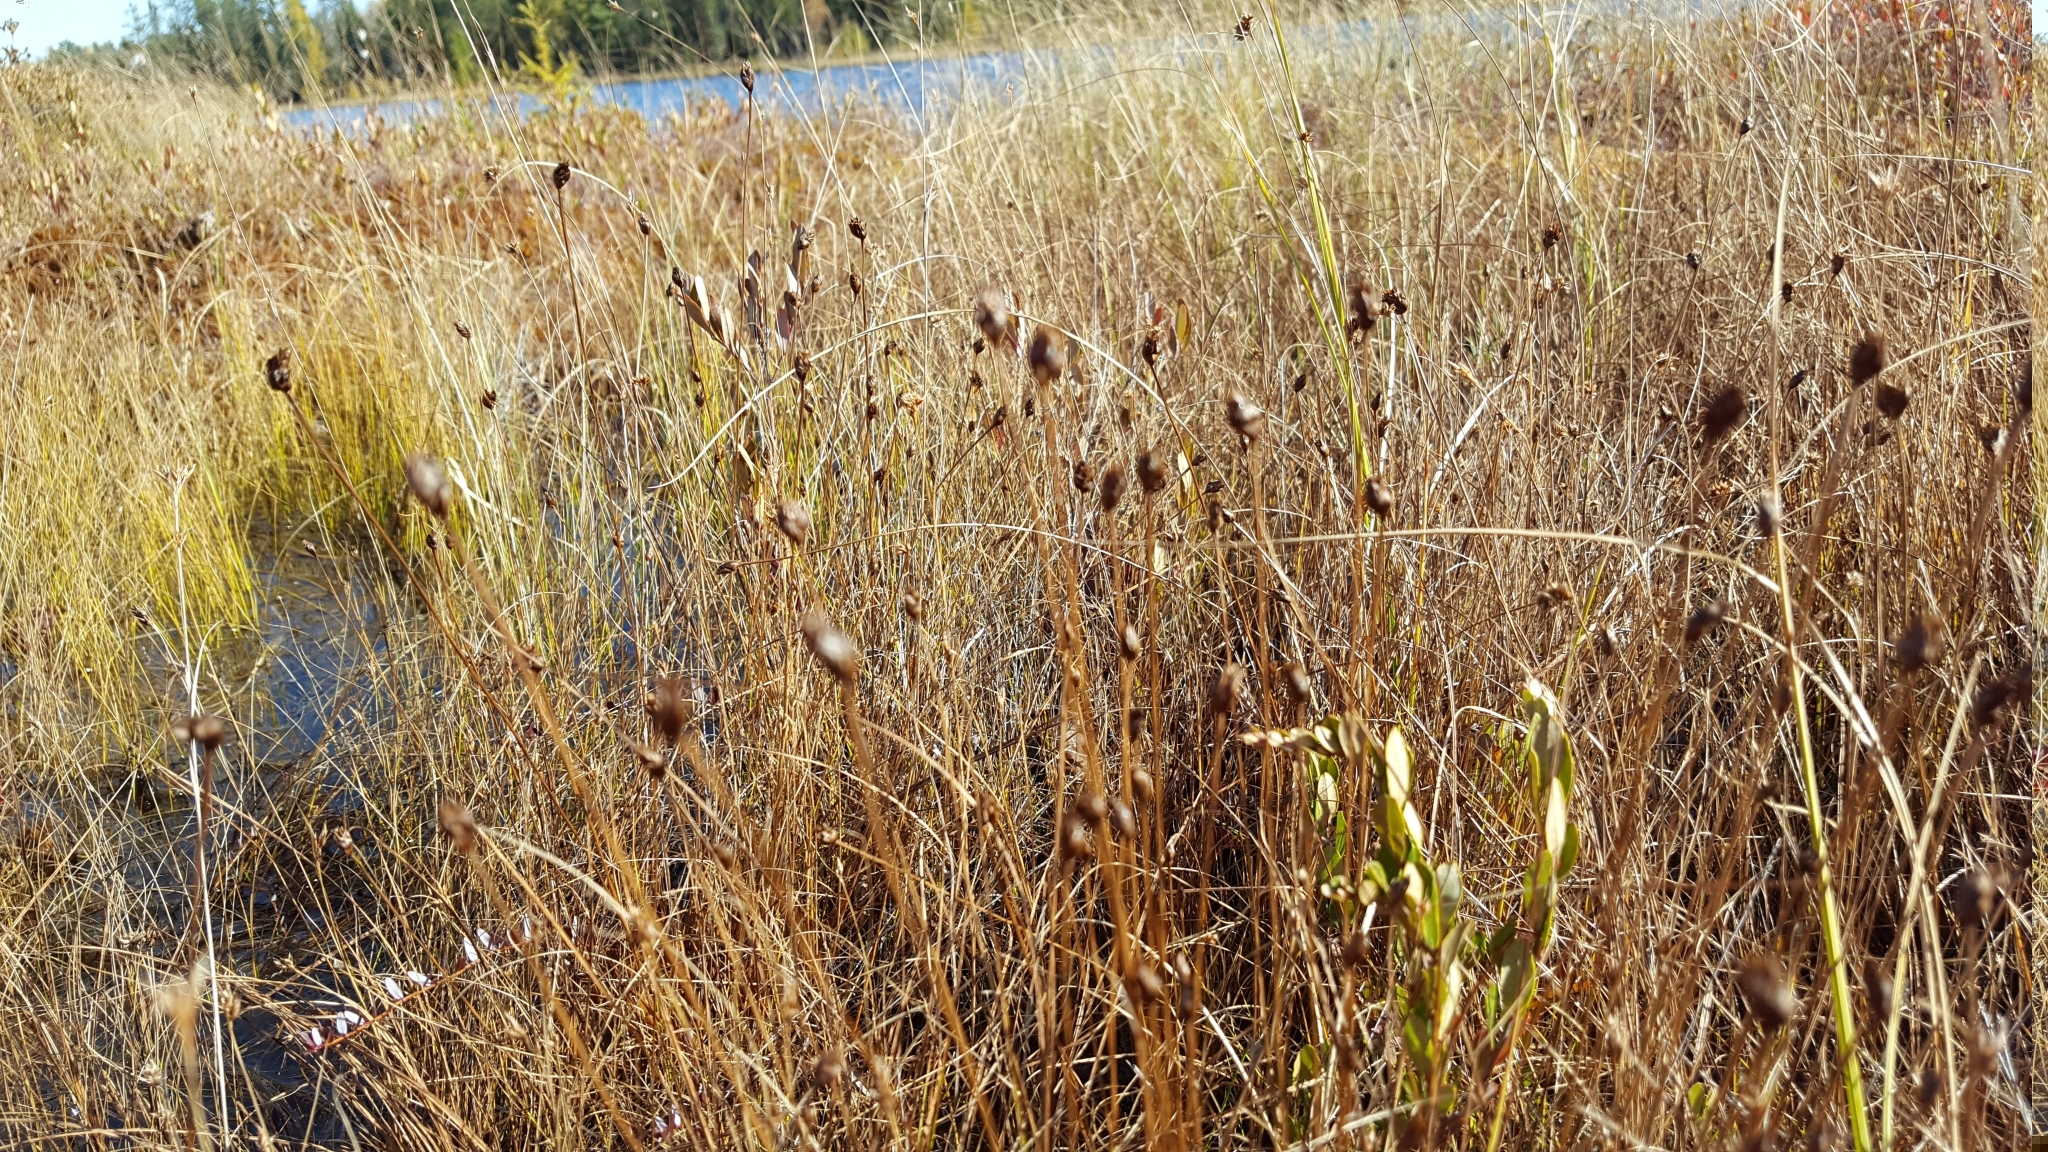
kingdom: Plantae
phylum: Tracheophyta
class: Liliopsida
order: Poales
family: Xyridaceae
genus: Xyris
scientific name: Xyris montana
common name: Northern yellow-eyed-grass
